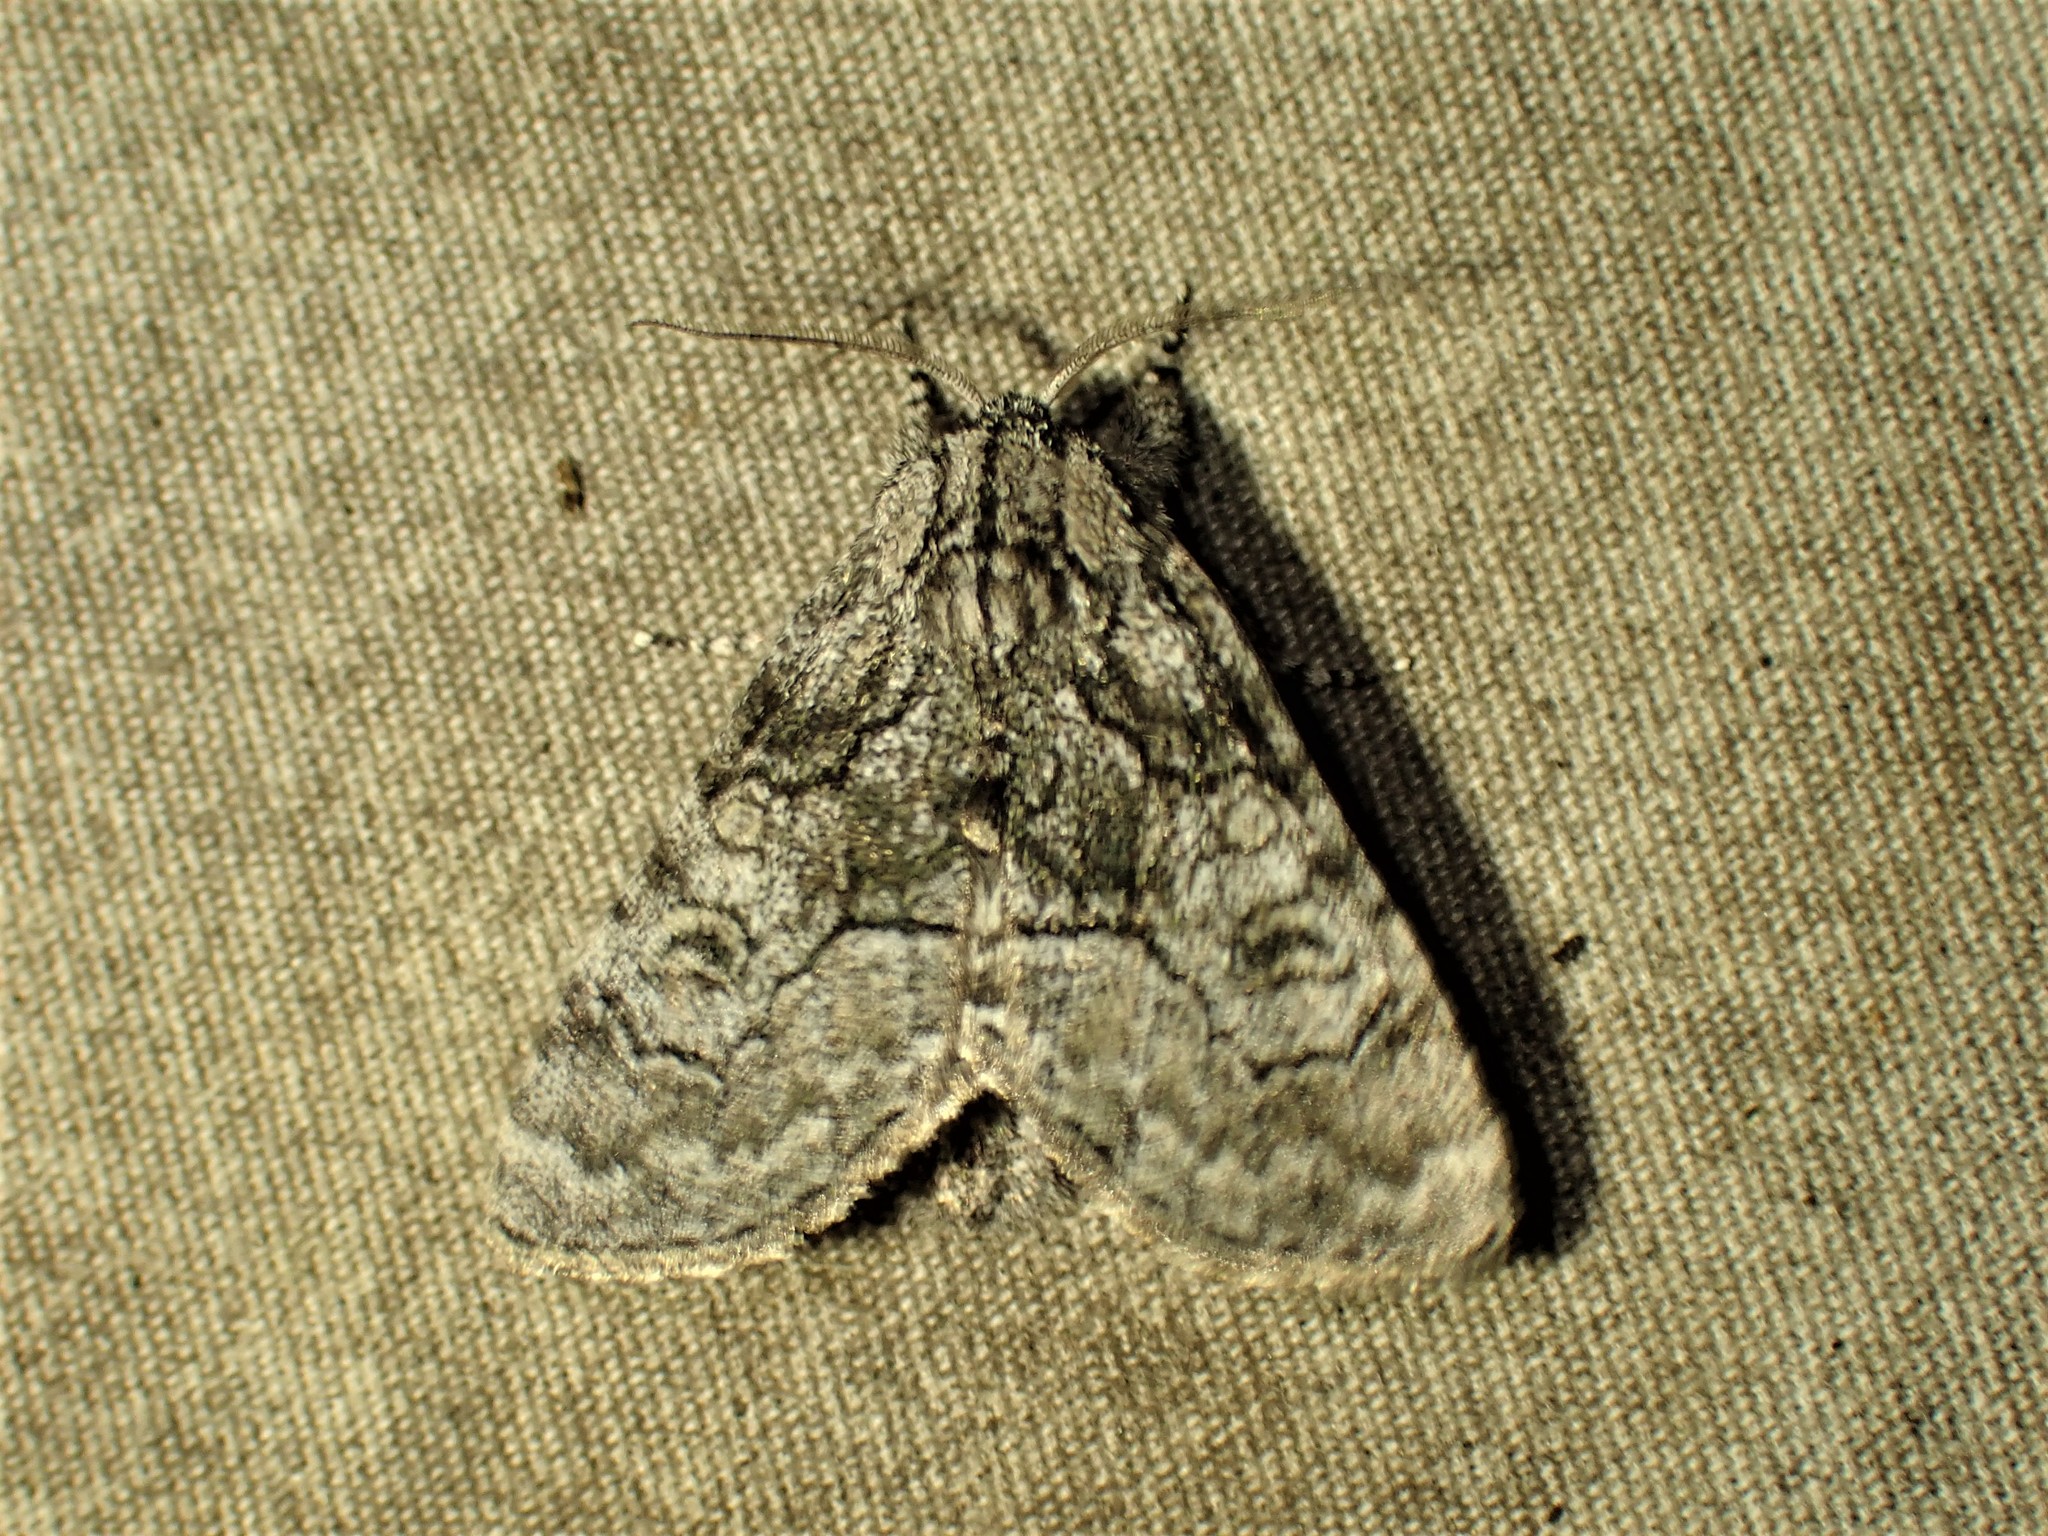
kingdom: Animalia
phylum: Arthropoda
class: Insecta
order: Lepidoptera
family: Noctuidae
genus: Raphia
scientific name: Raphia frater
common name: Brother
